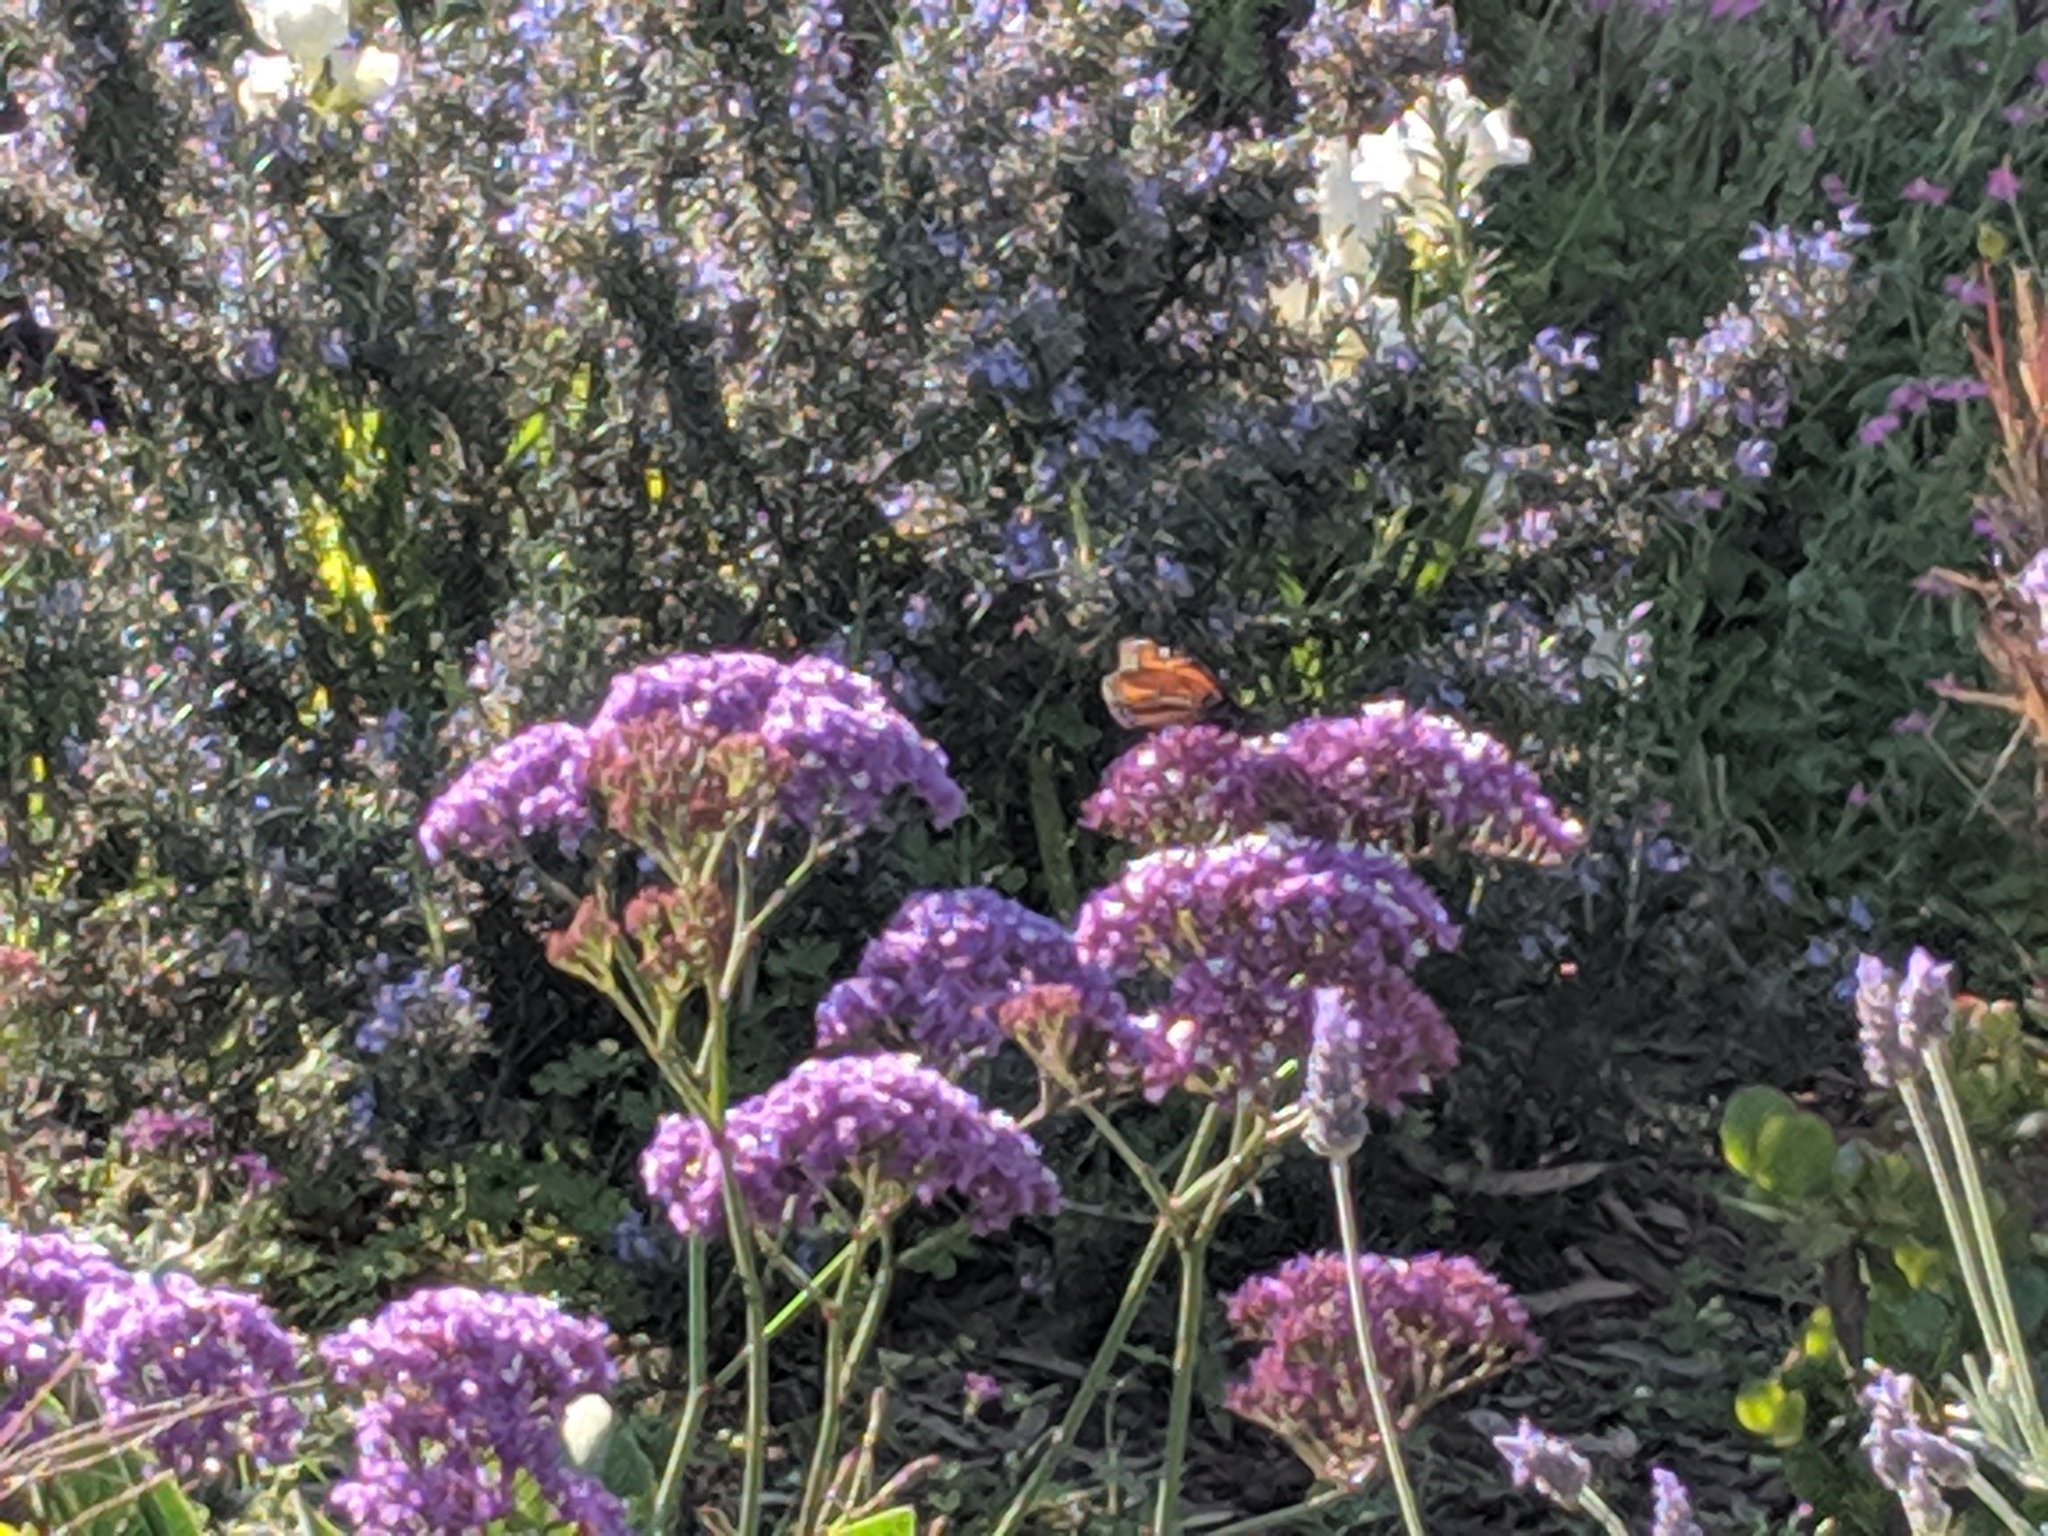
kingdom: Animalia
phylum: Arthropoda
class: Insecta
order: Lepidoptera
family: Nymphalidae
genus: Danaus
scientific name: Danaus plexippus
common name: Monarch
